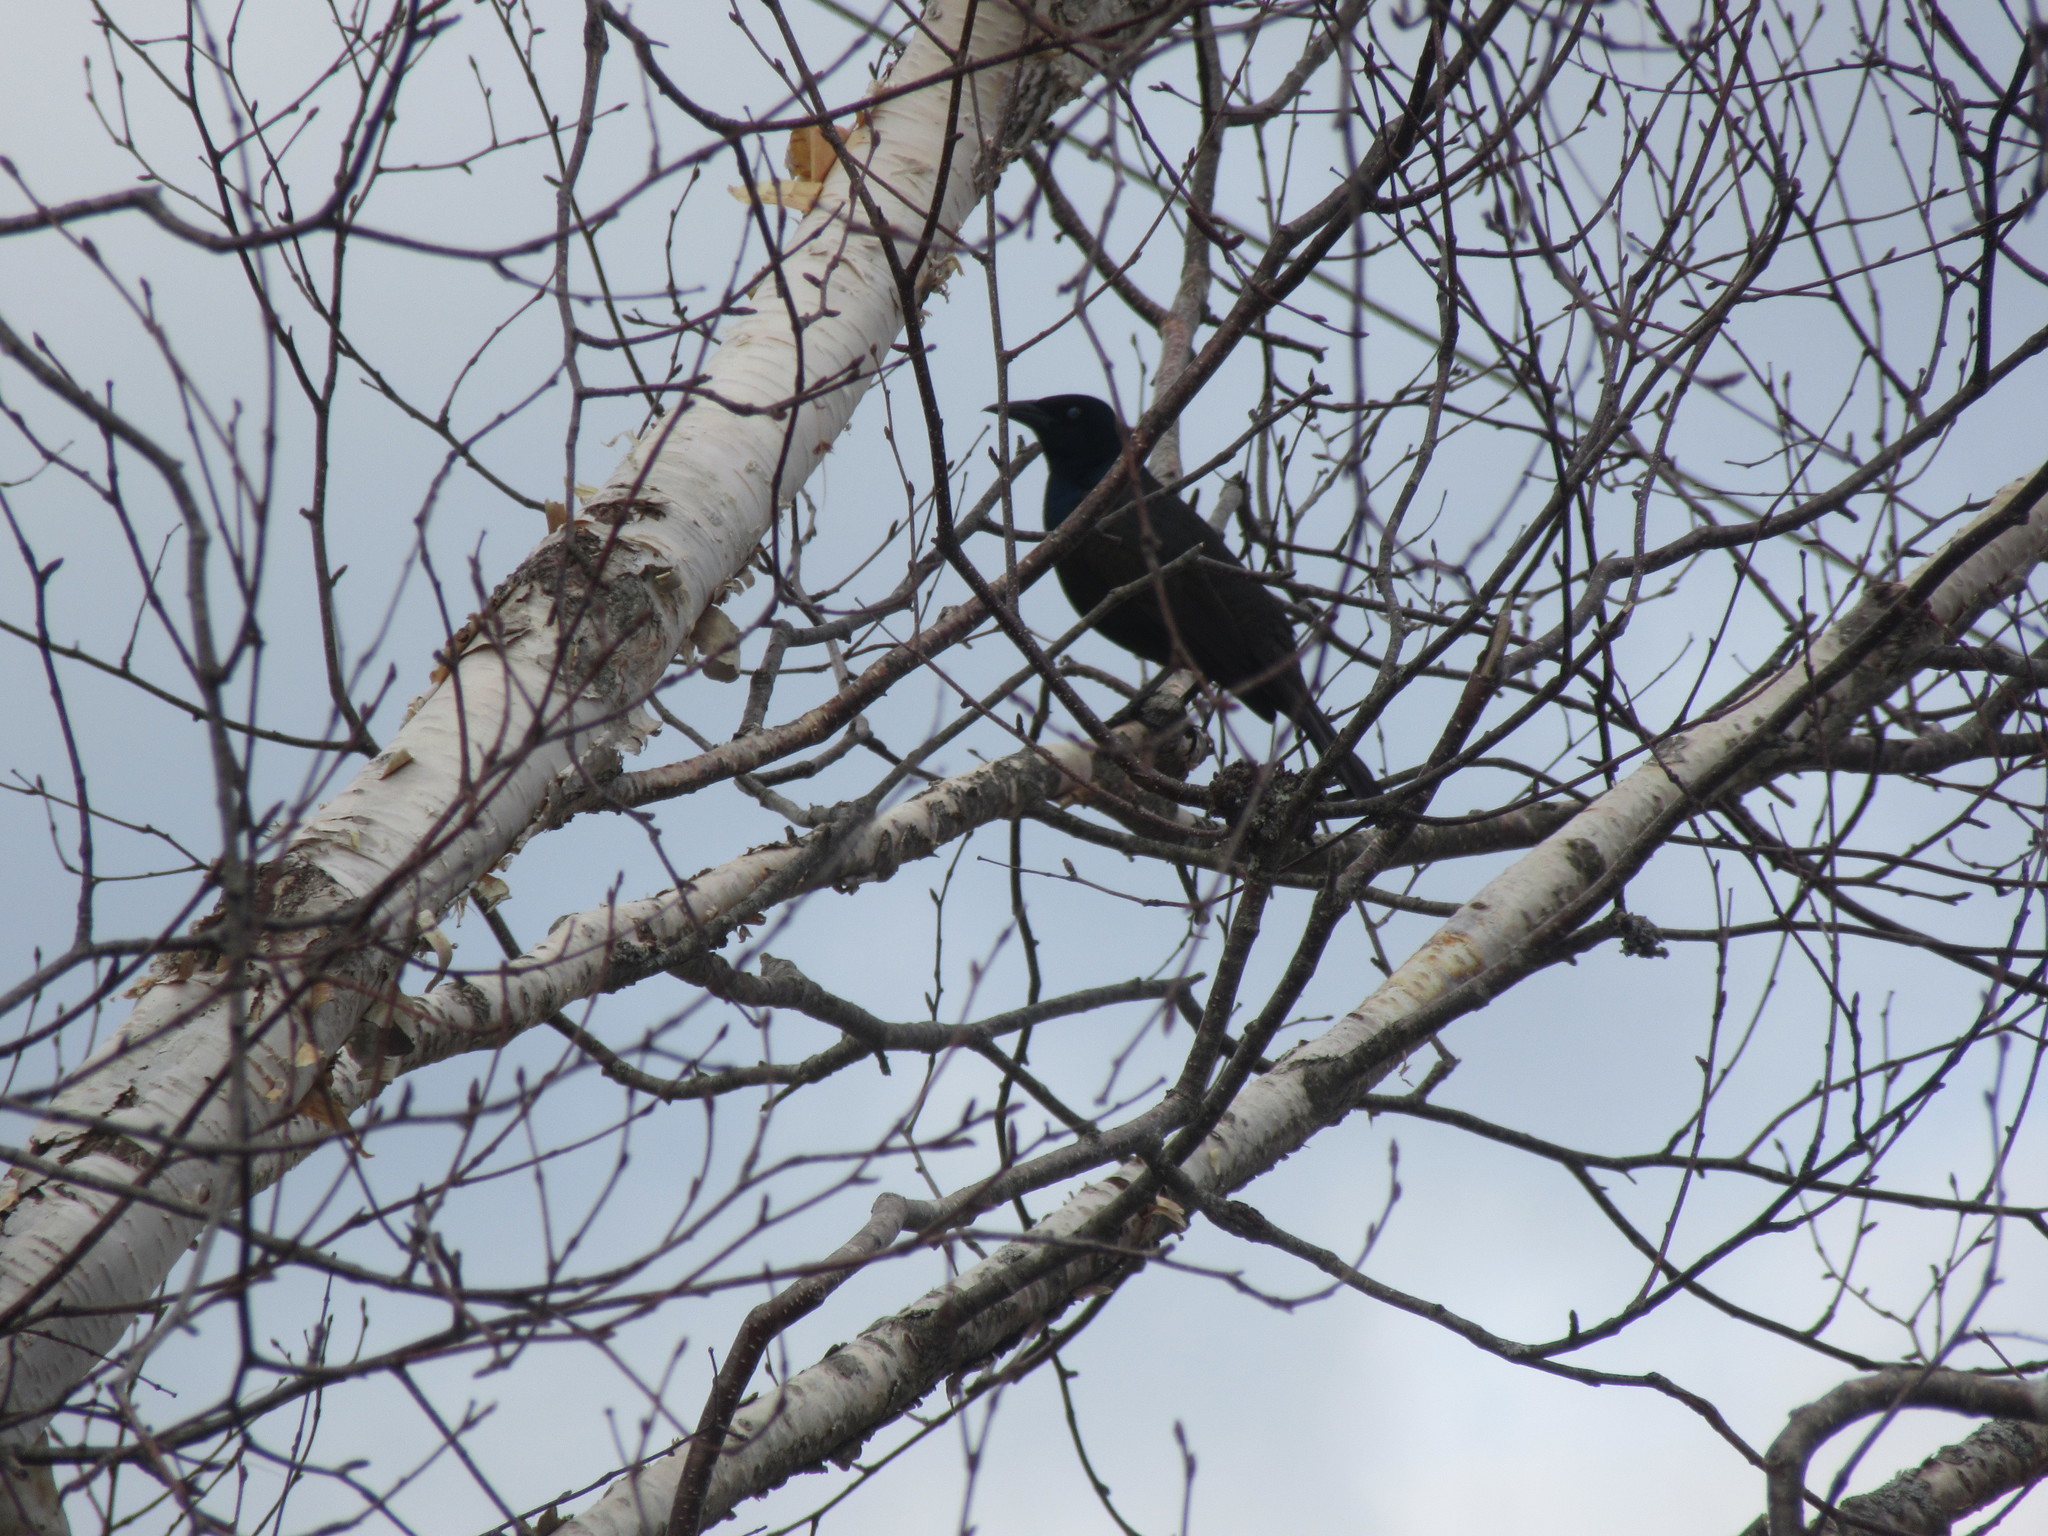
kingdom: Animalia
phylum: Chordata
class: Aves
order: Passeriformes
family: Icteridae
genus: Quiscalus
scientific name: Quiscalus quiscula
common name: Common grackle
